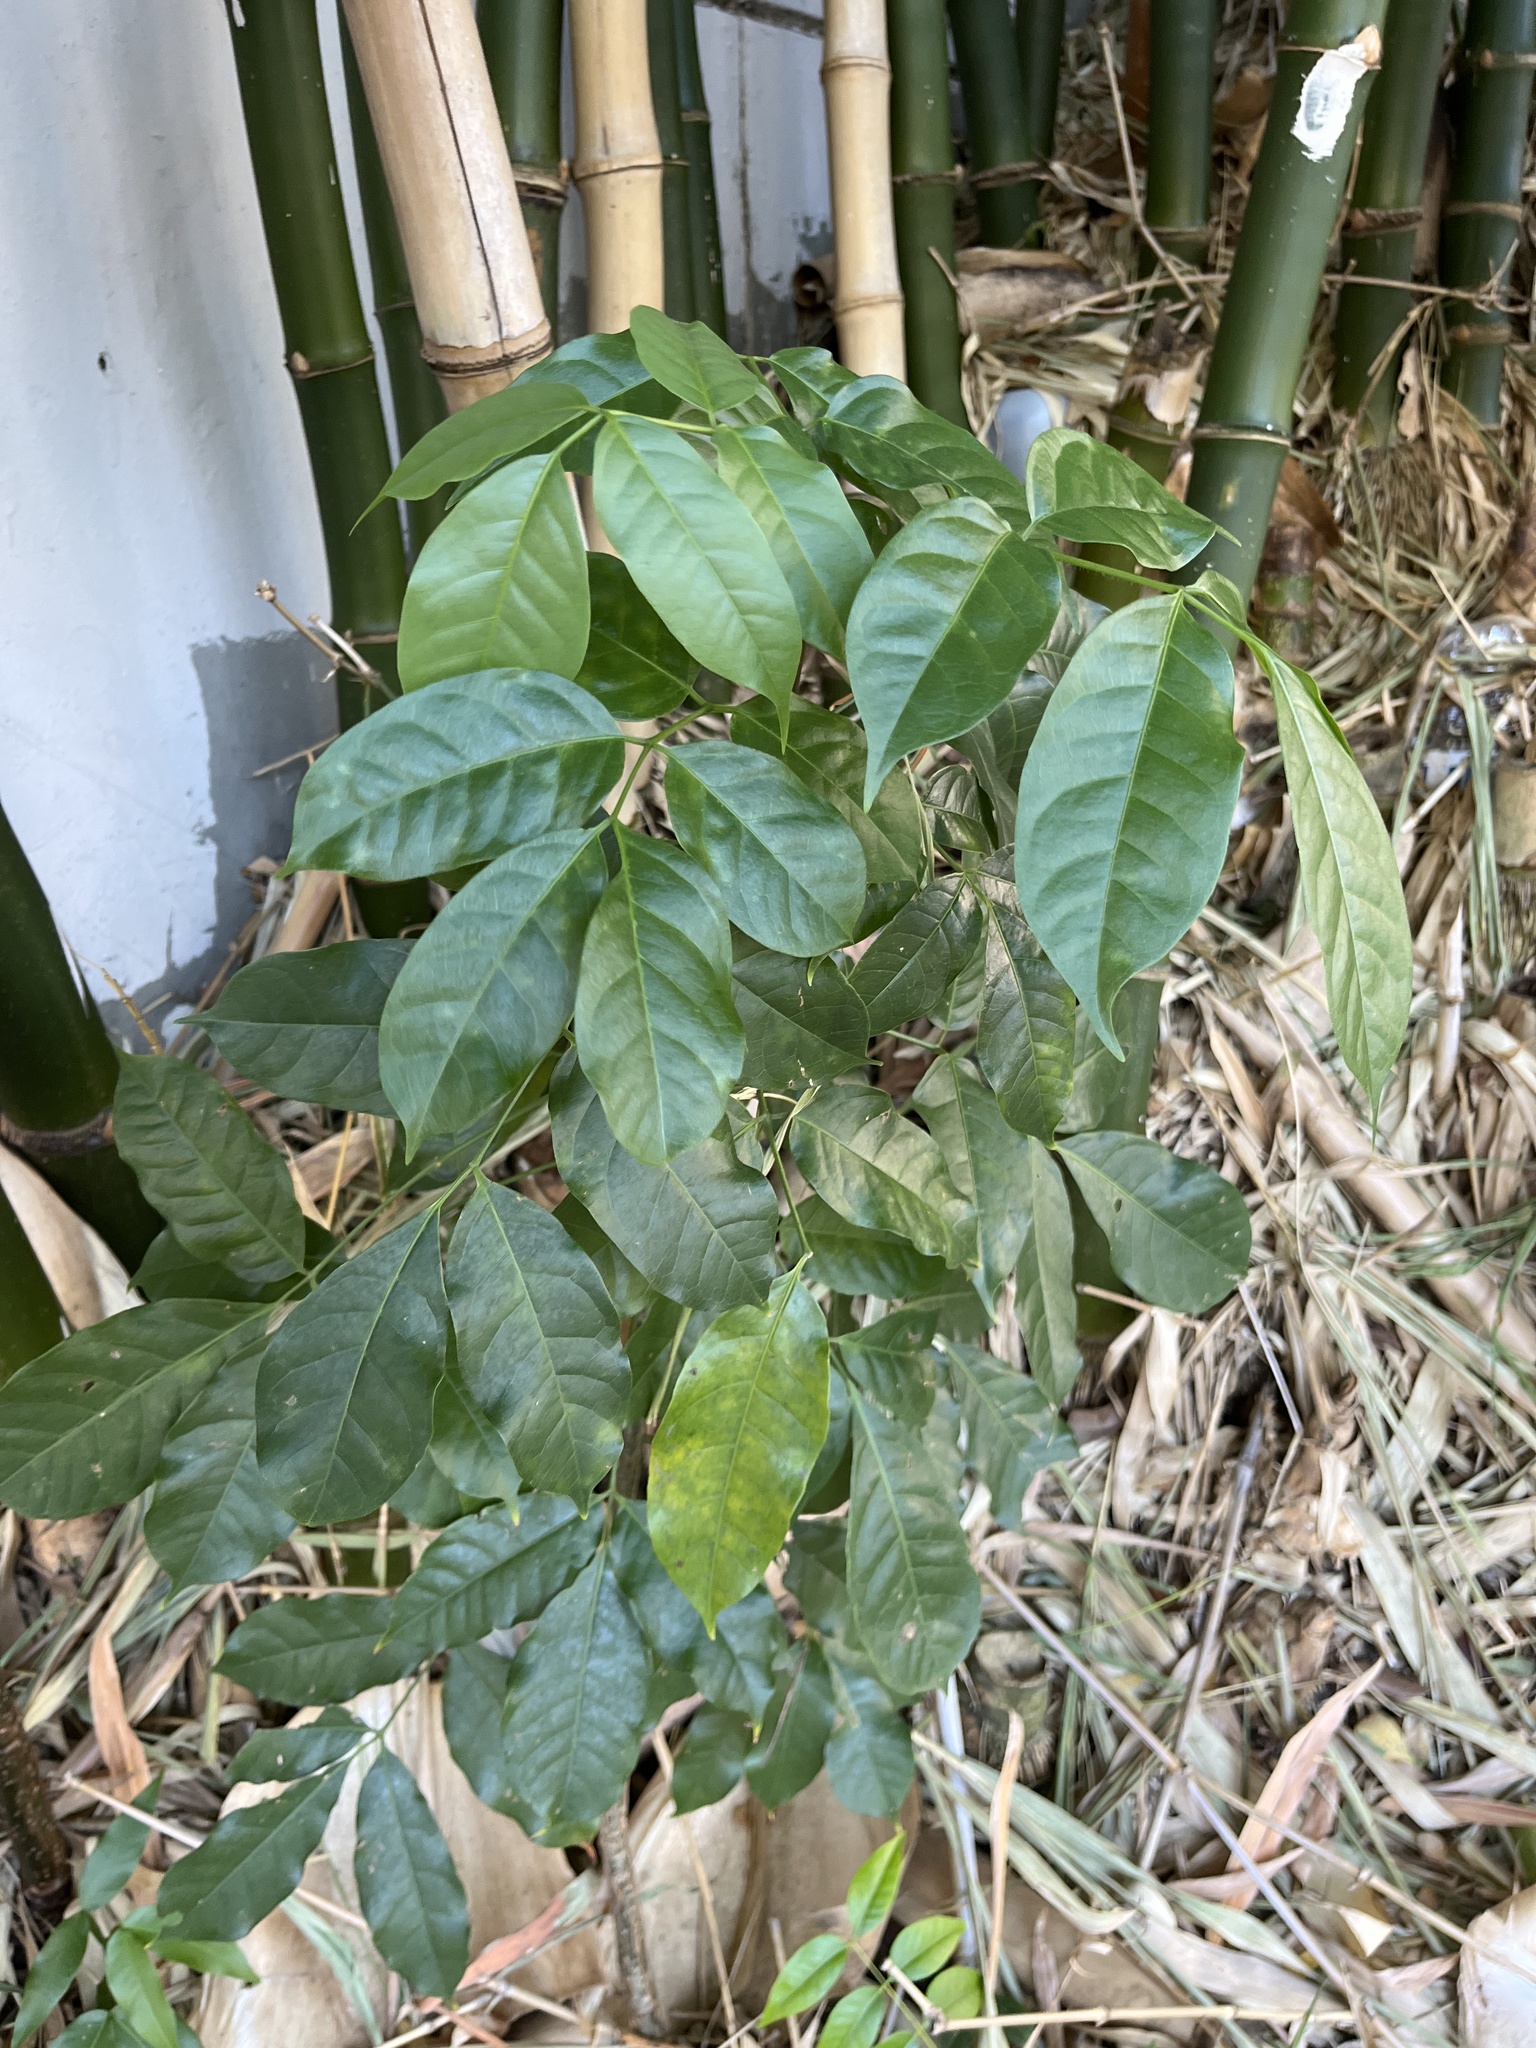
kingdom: Plantae
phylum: Tracheophyta
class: Magnoliopsida
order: Sapindales
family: Burseraceae
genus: Bursera
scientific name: Bursera simaruba
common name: Turpentine tree
